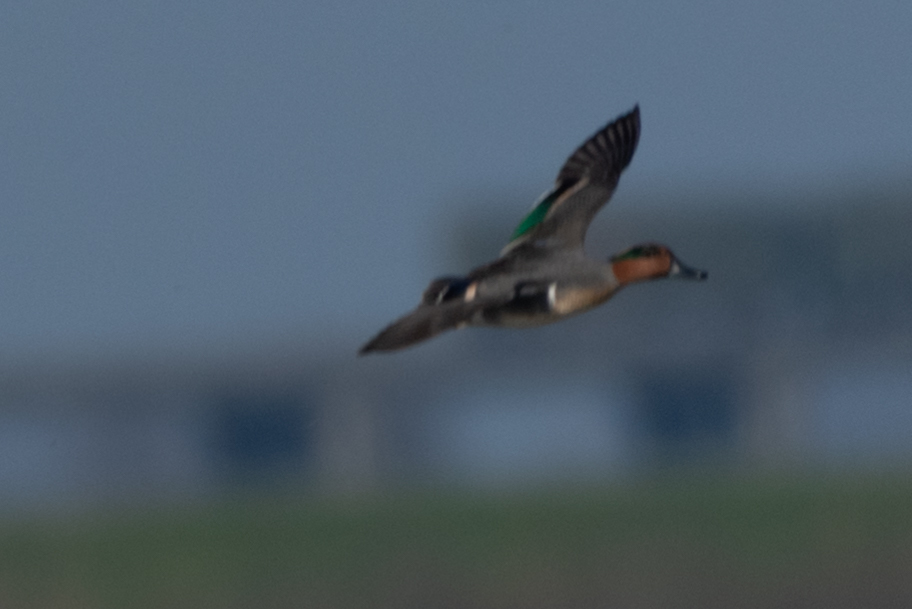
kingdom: Animalia
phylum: Chordata
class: Aves
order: Anseriformes
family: Anatidae
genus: Anas
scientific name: Anas crecca
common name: Eurasian teal
